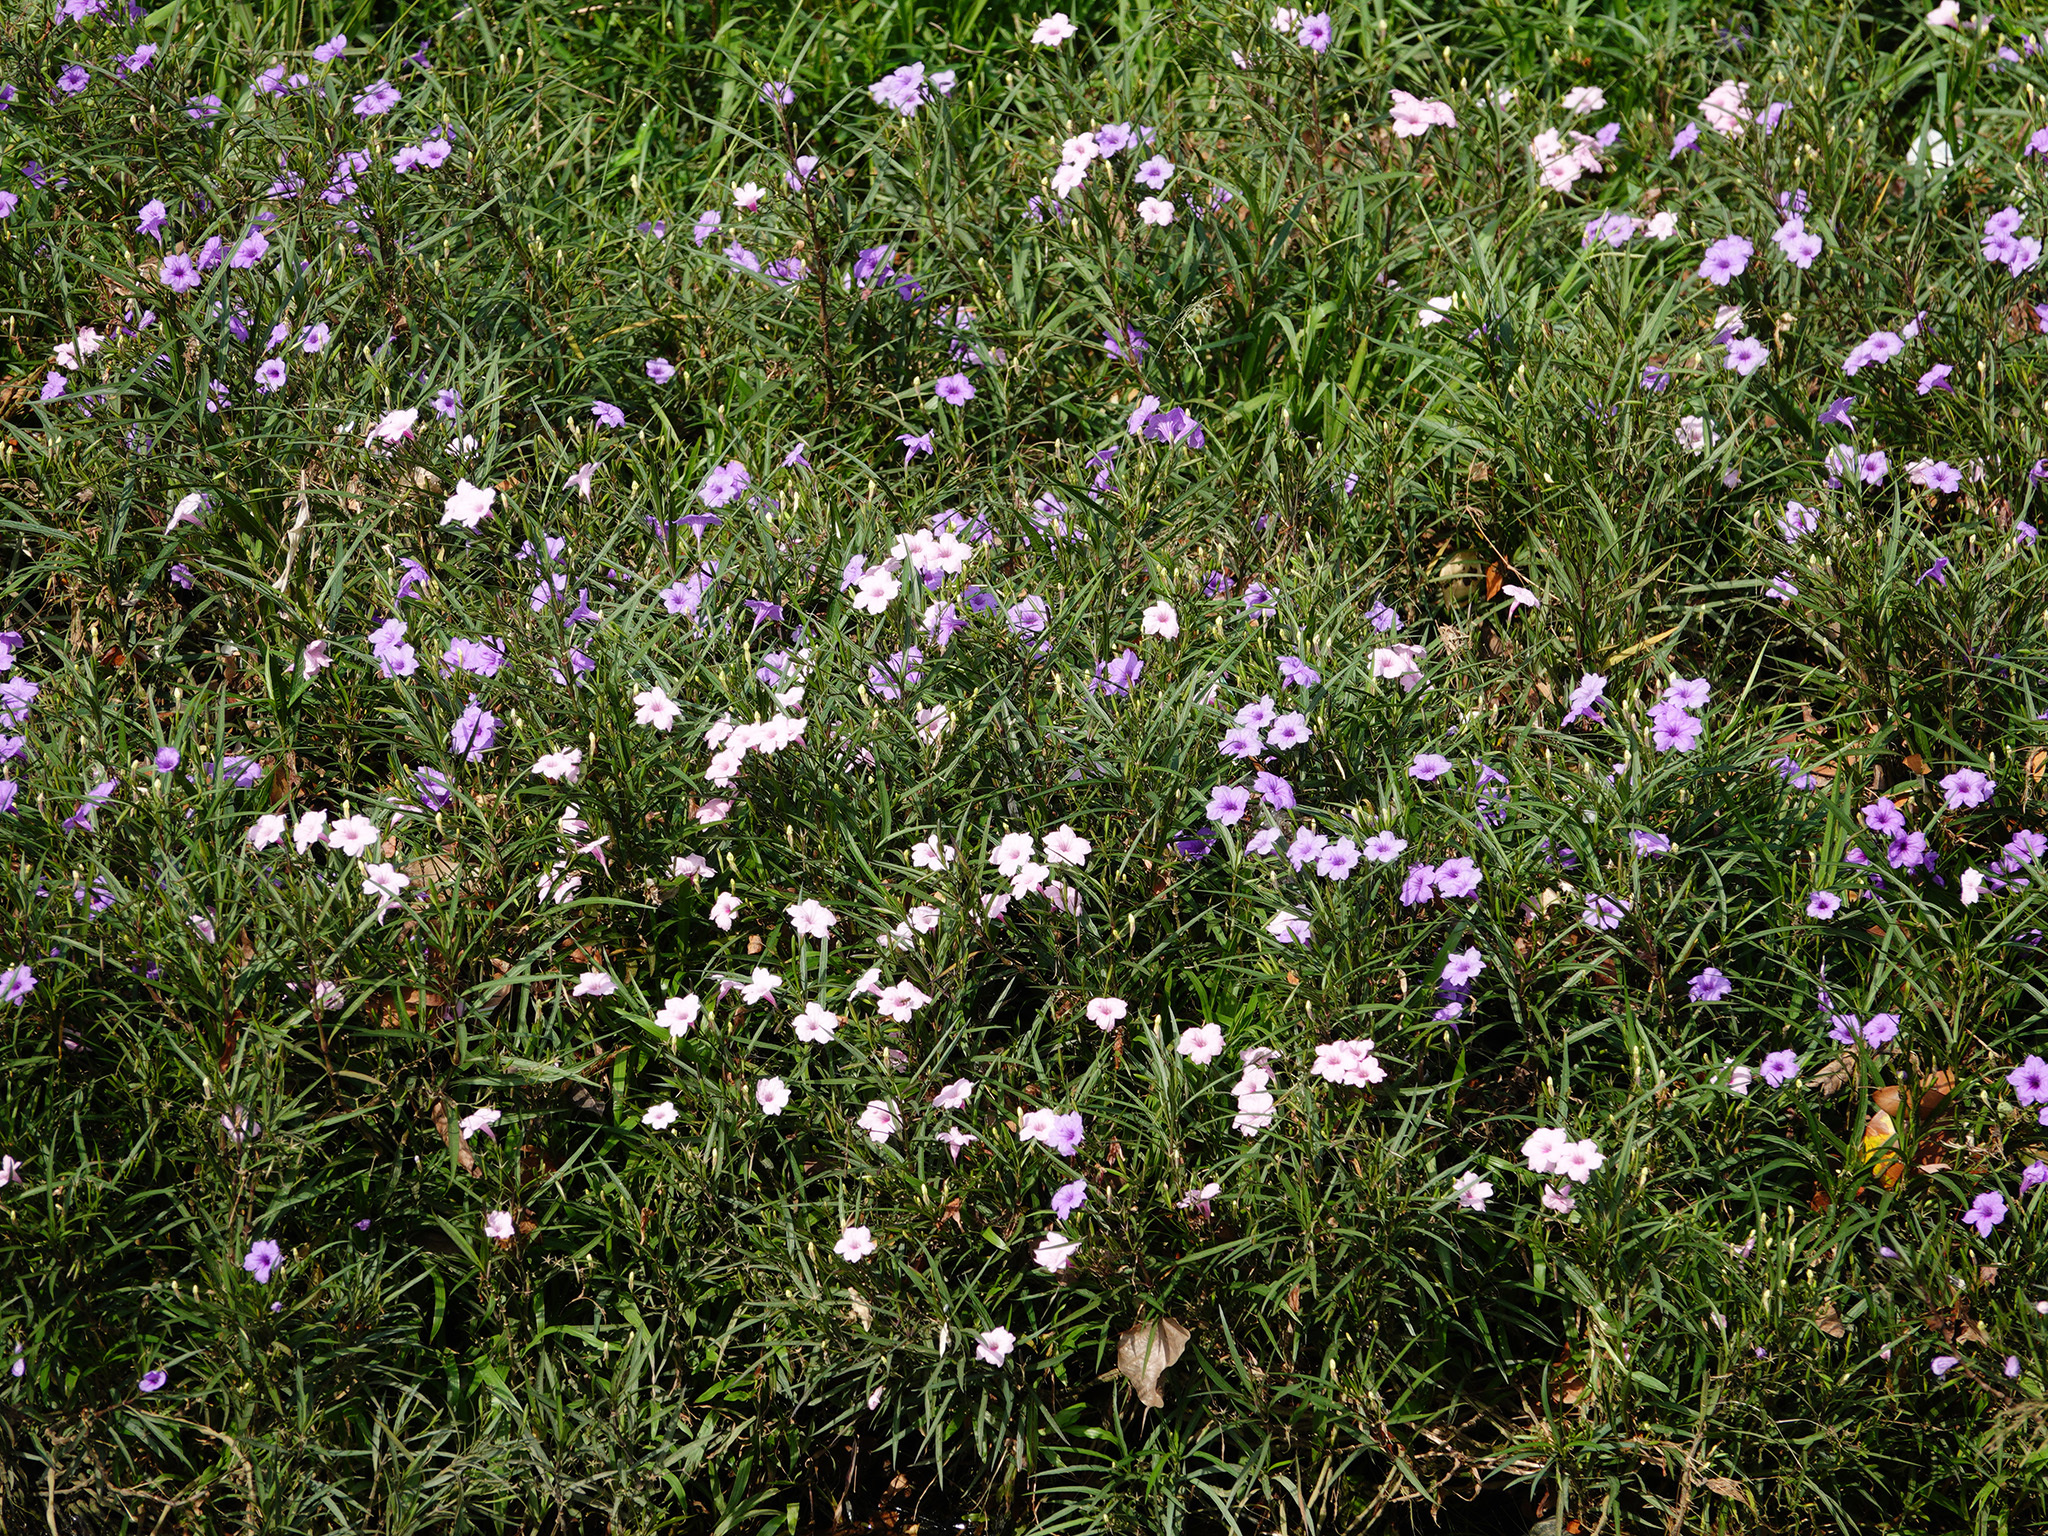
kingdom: Plantae
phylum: Tracheophyta
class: Magnoliopsida
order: Lamiales
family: Acanthaceae
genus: Ruellia
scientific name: Ruellia simplex
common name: Softseed wild petunia
